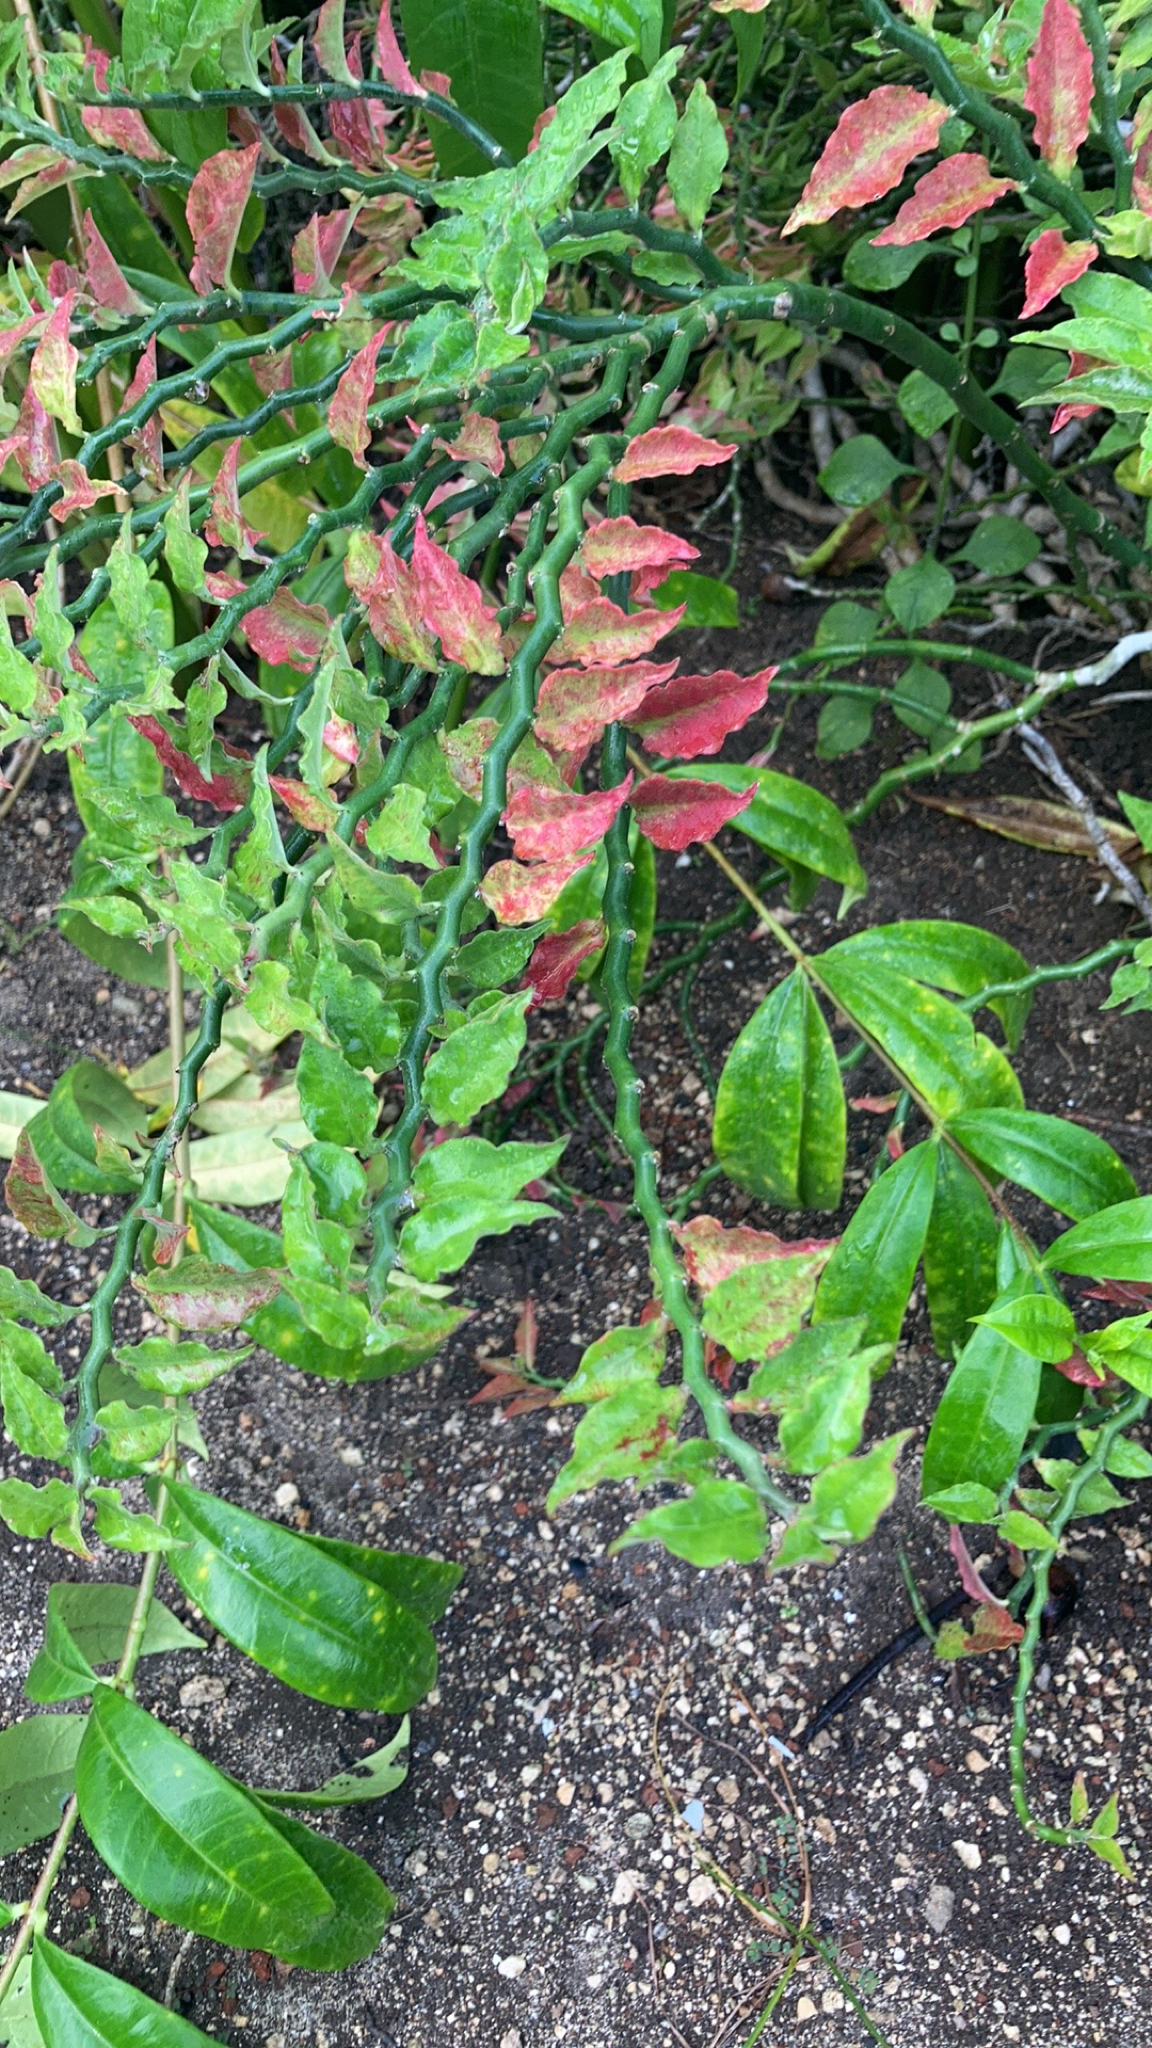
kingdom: Plantae
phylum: Tracheophyta
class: Magnoliopsida
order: Malpighiales
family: Euphorbiaceae
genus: Euphorbia
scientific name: Euphorbia tithymaloides
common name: Slipperplant
